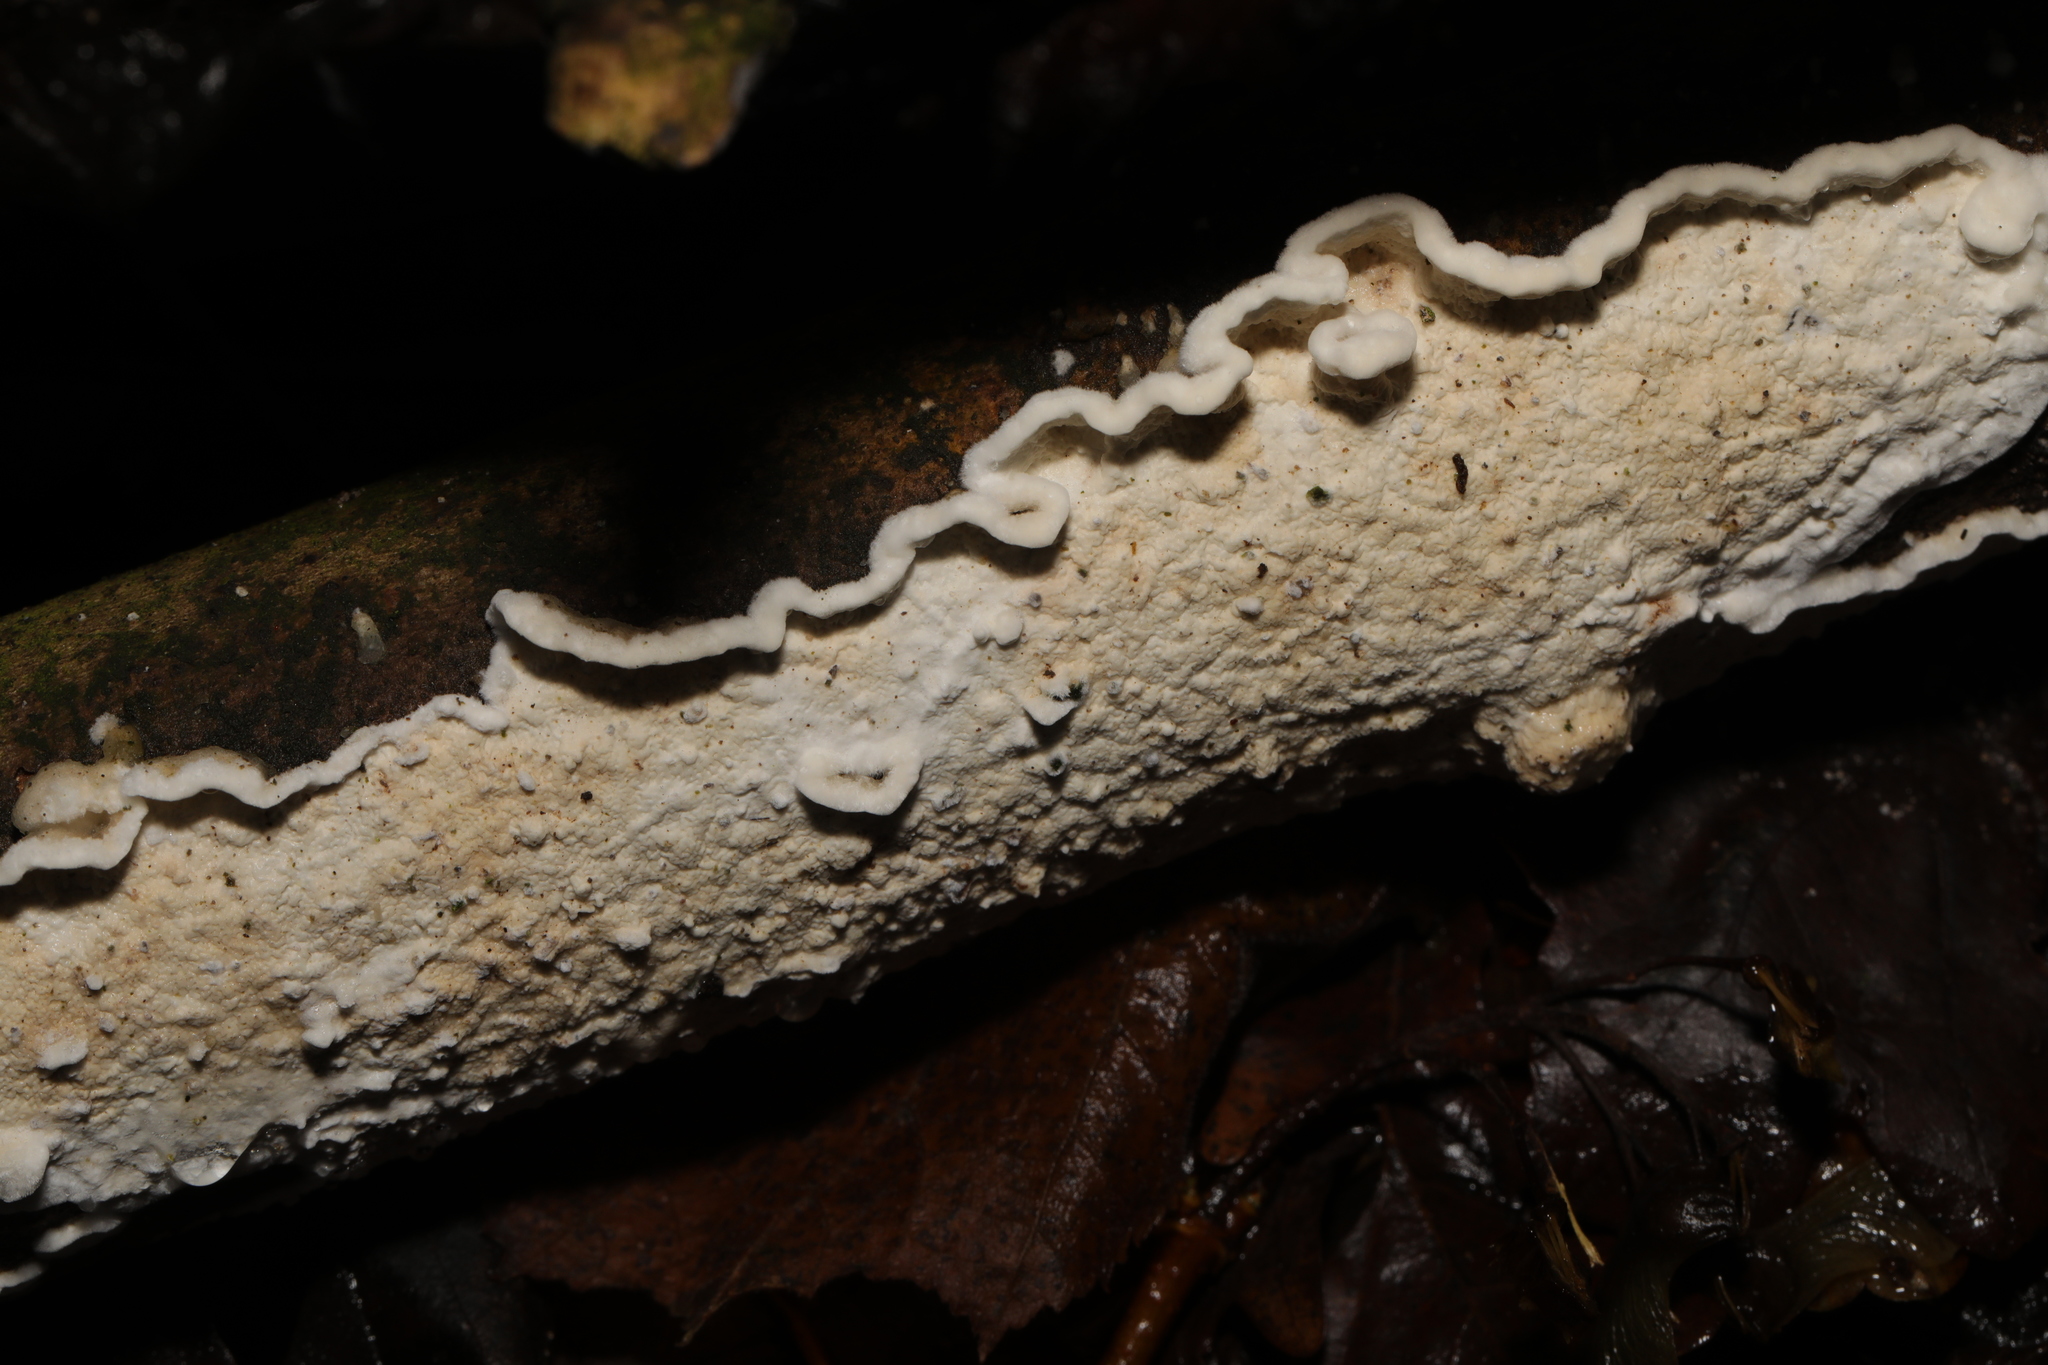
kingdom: Fungi
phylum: Basidiomycota
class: Agaricomycetes
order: Polyporales
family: Irpicaceae
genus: Byssomerulius
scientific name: Byssomerulius corium
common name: Netted crust
